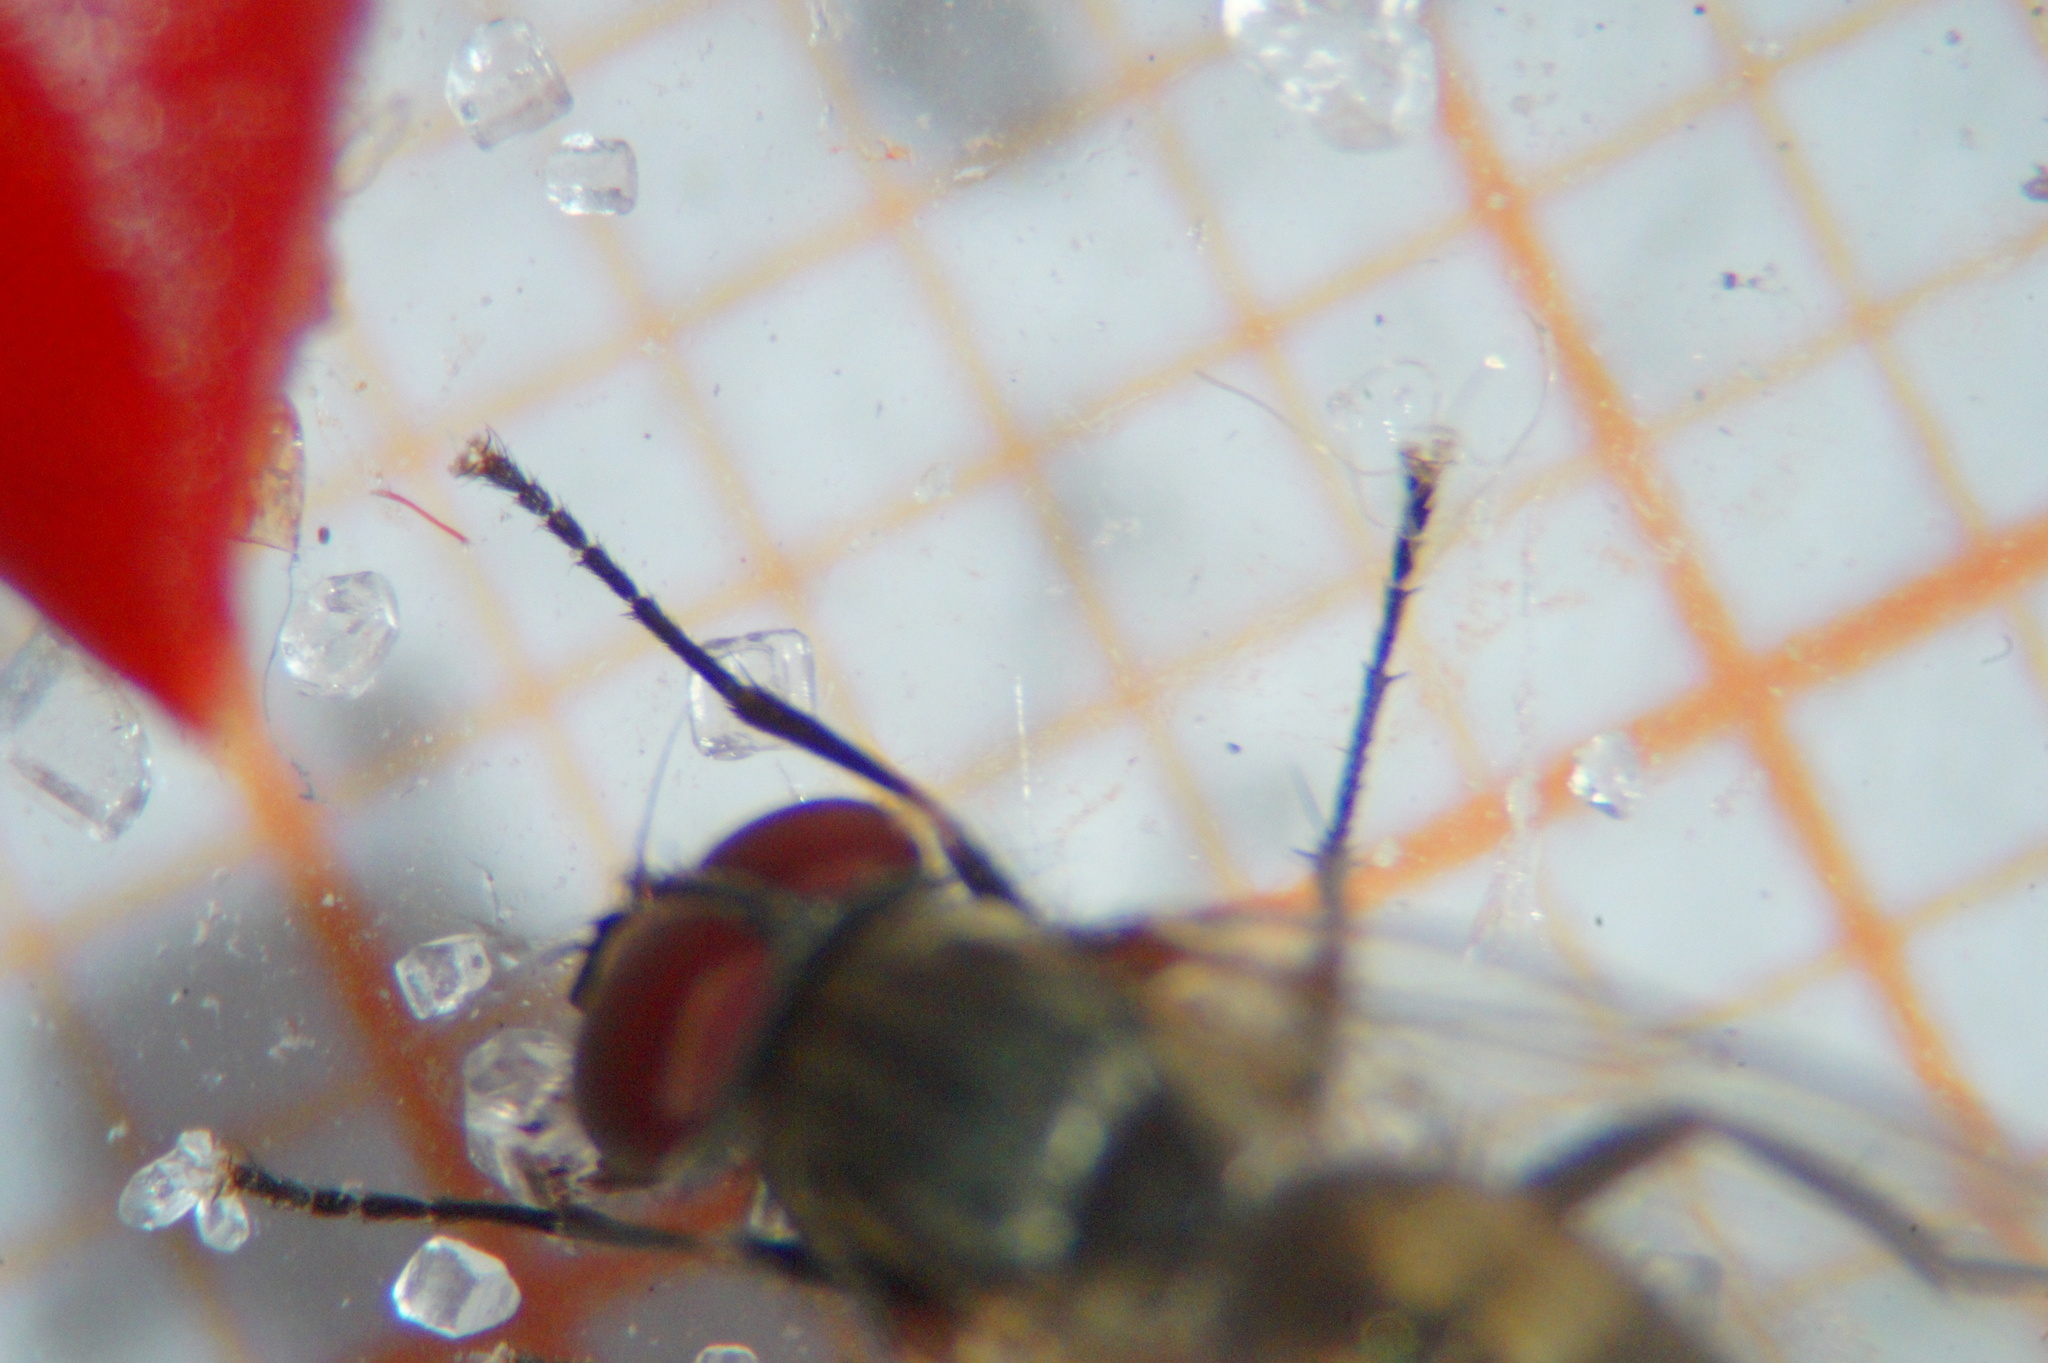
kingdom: Animalia
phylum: Arthropoda
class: Insecta
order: Diptera
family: Fanniidae
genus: Fannia
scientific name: Fannia canicularis
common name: Little house fly
